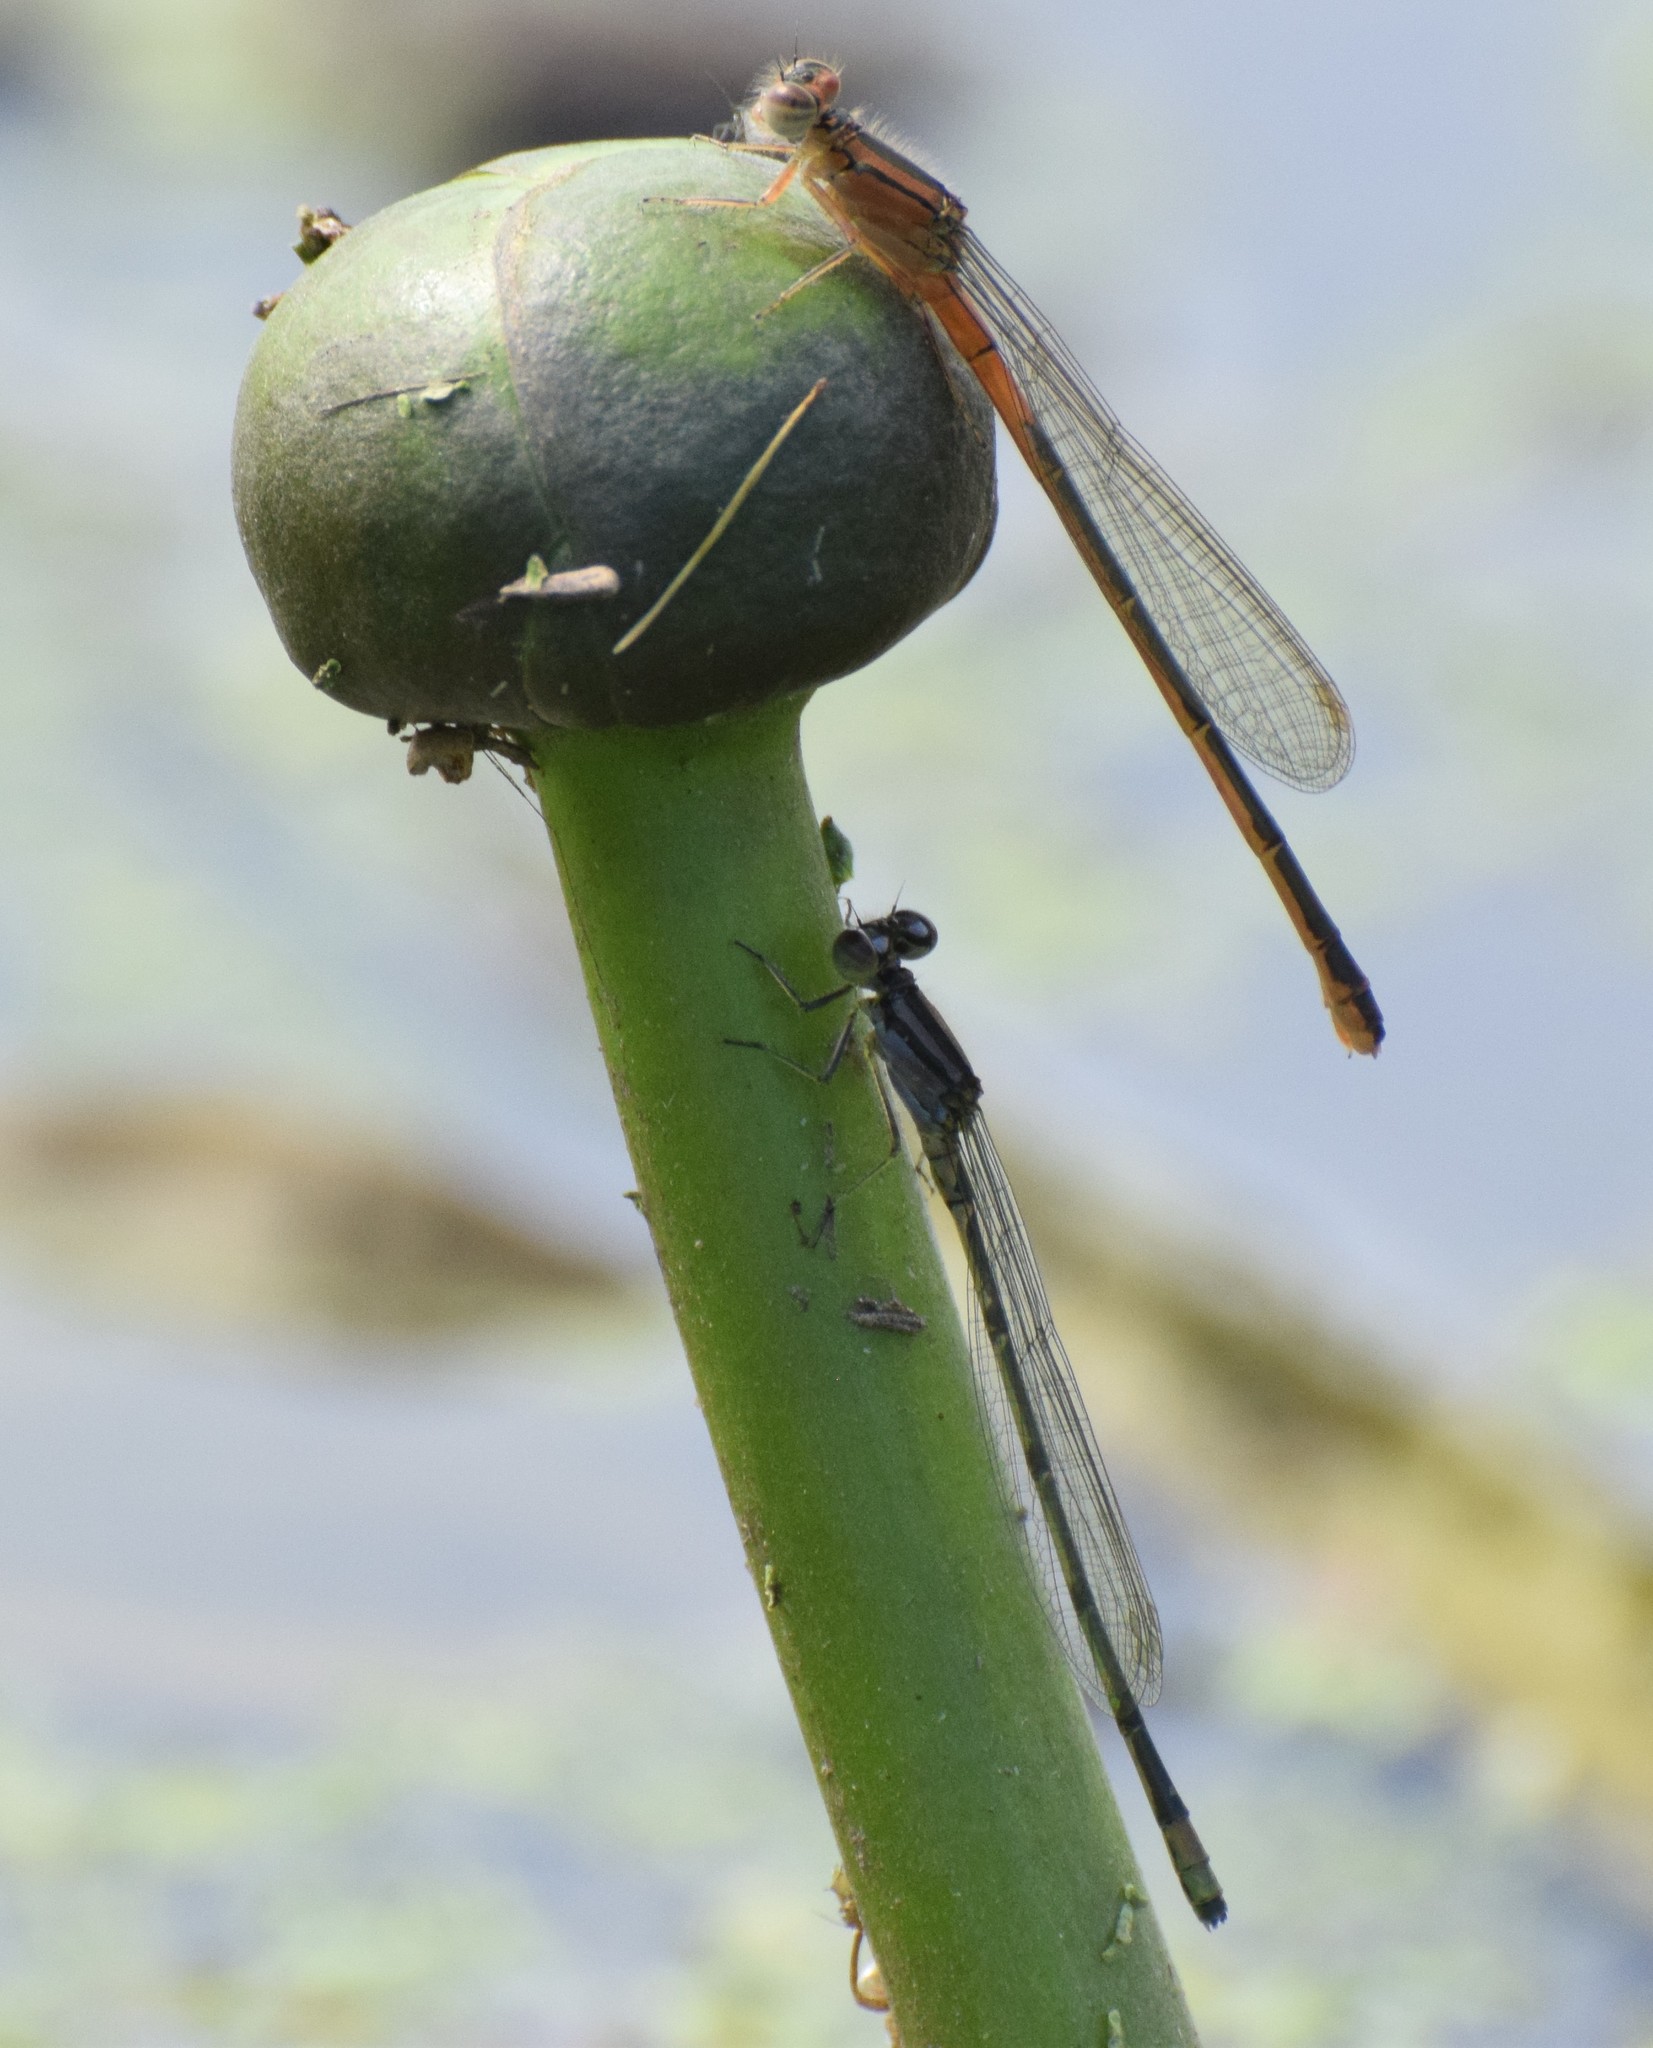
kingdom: Animalia
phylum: Arthropoda
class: Insecta
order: Odonata
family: Coenagrionidae
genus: Ischnura
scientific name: Ischnura verticalis
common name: Eastern forktail
